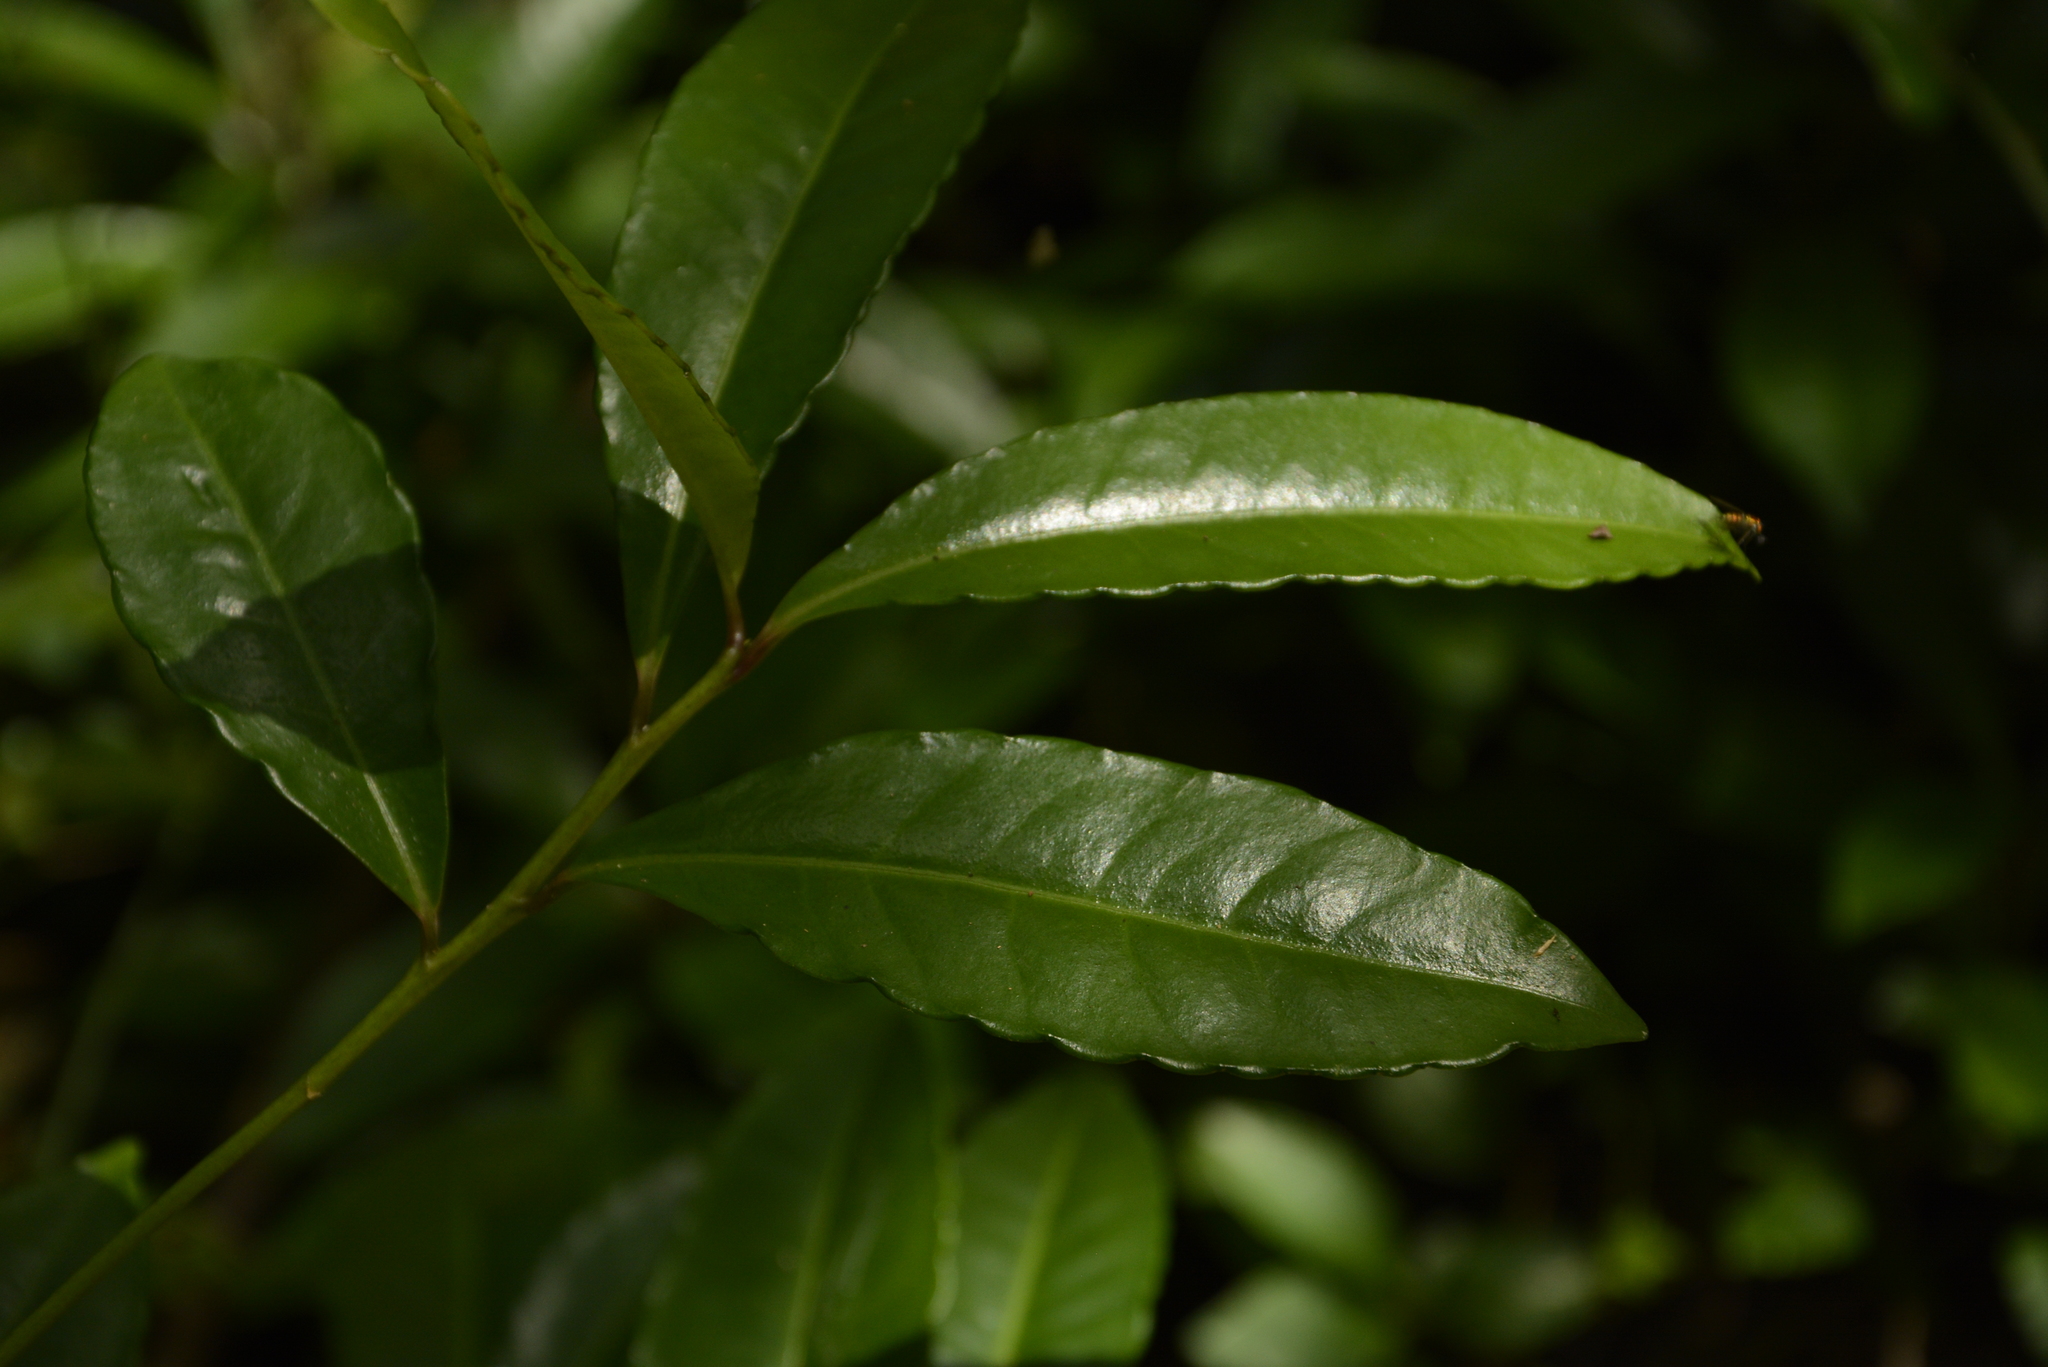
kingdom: Plantae
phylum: Tracheophyta
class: Magnoliopsida
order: Ericales
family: Primulaceae
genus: Ardisia
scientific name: Ardisia crenata
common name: Hen's eyes
